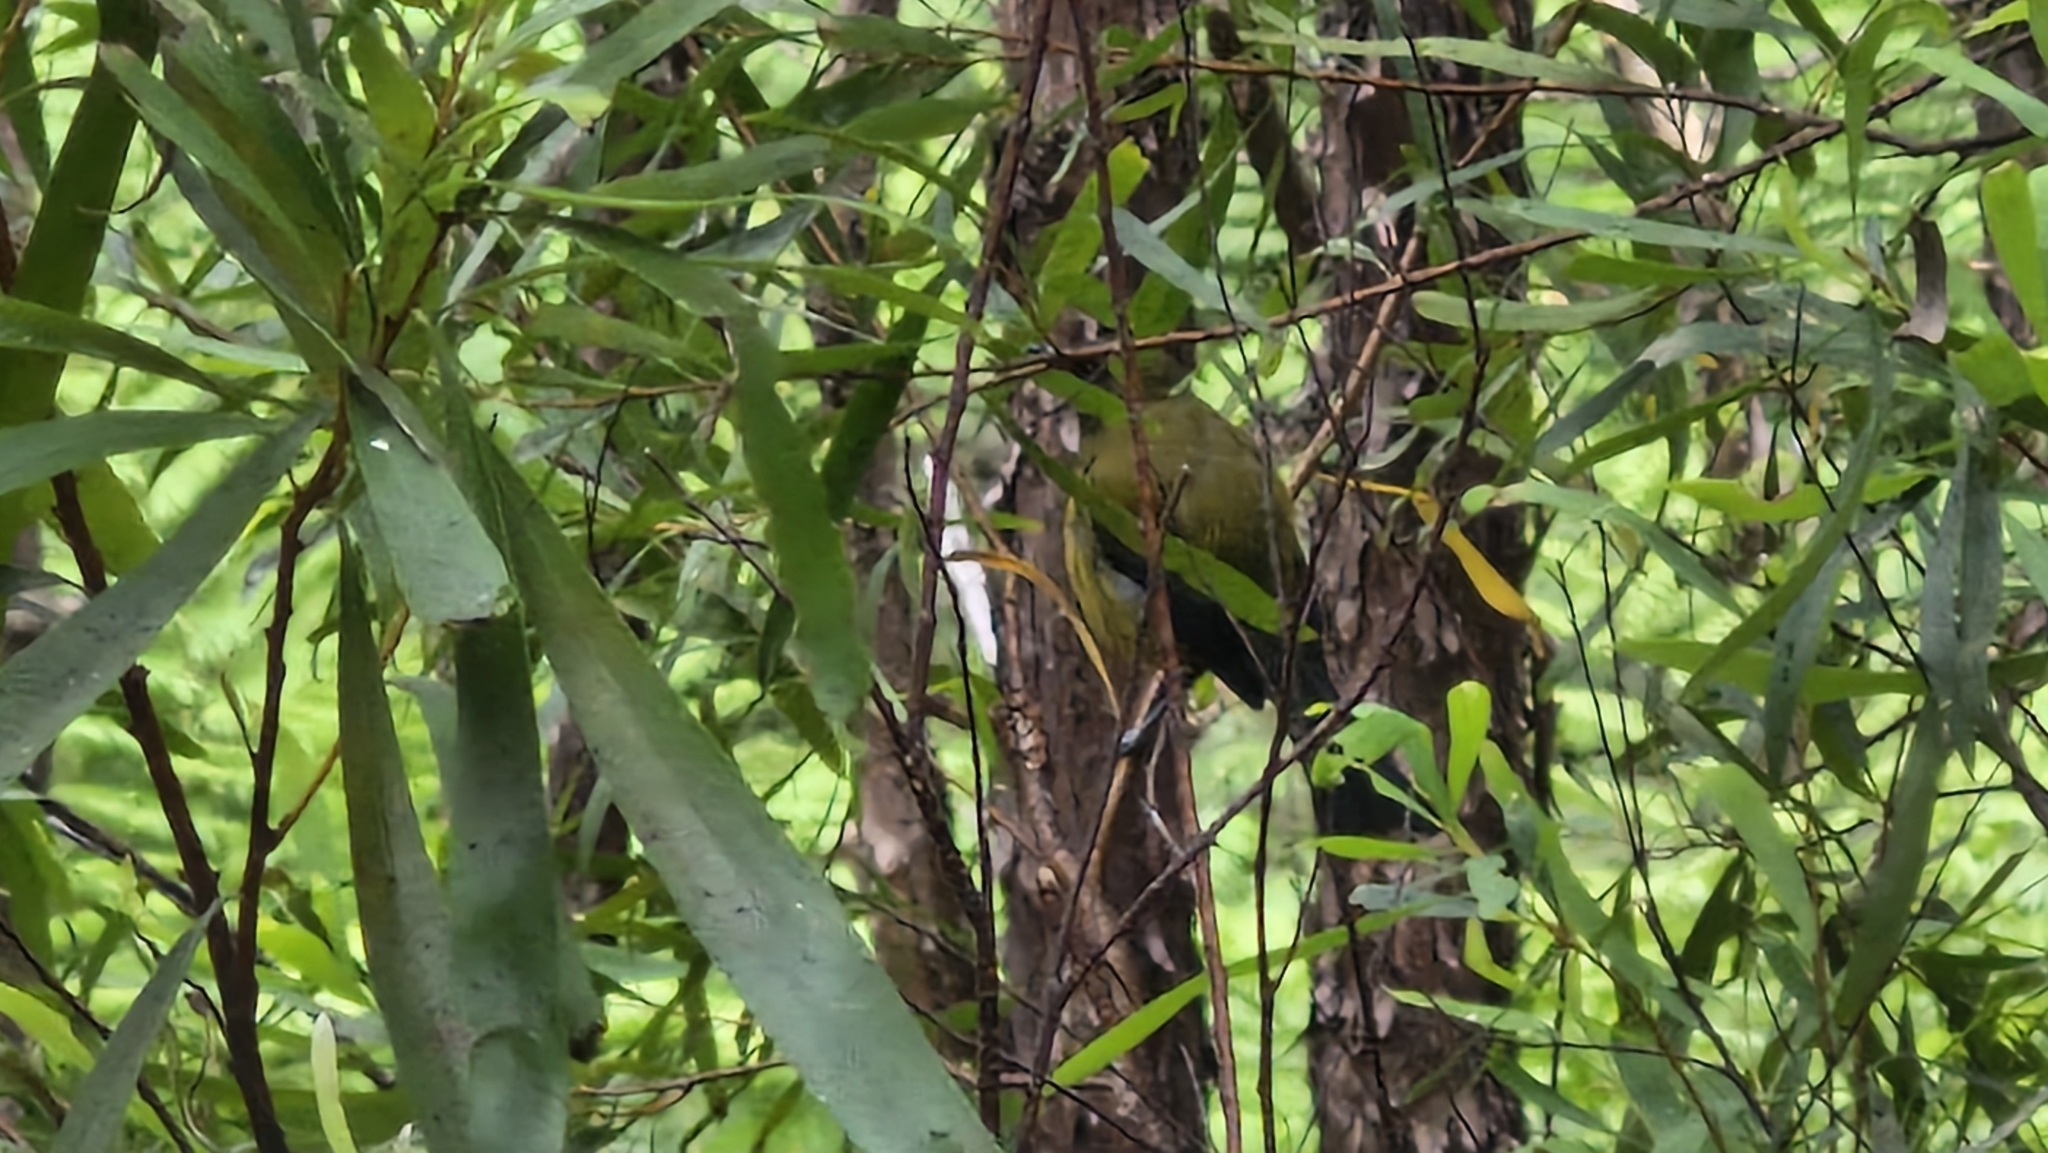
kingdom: Animalia
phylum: Chordata
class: Aves
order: Passeriformes
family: Meliphagidae
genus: Anthornis
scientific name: Anthornis melanura
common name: New zealand bellbird
